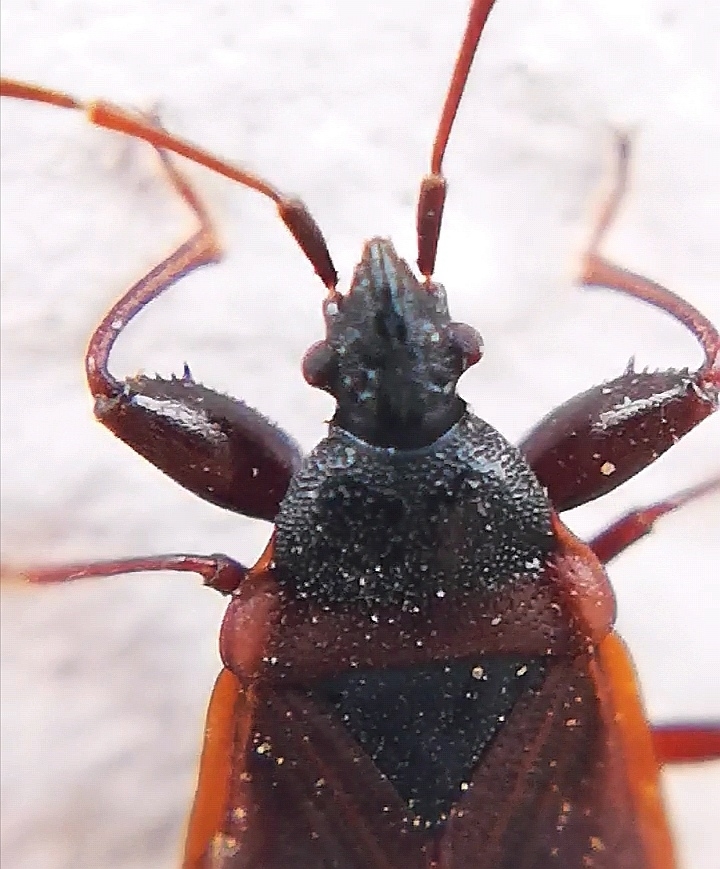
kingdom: Animalia
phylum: Arthropoda
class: Insecta
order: Hemiptera
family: Rhyparochromidae
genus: Gastrodes
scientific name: Gastrodes grossipes
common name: Pine cone bug
